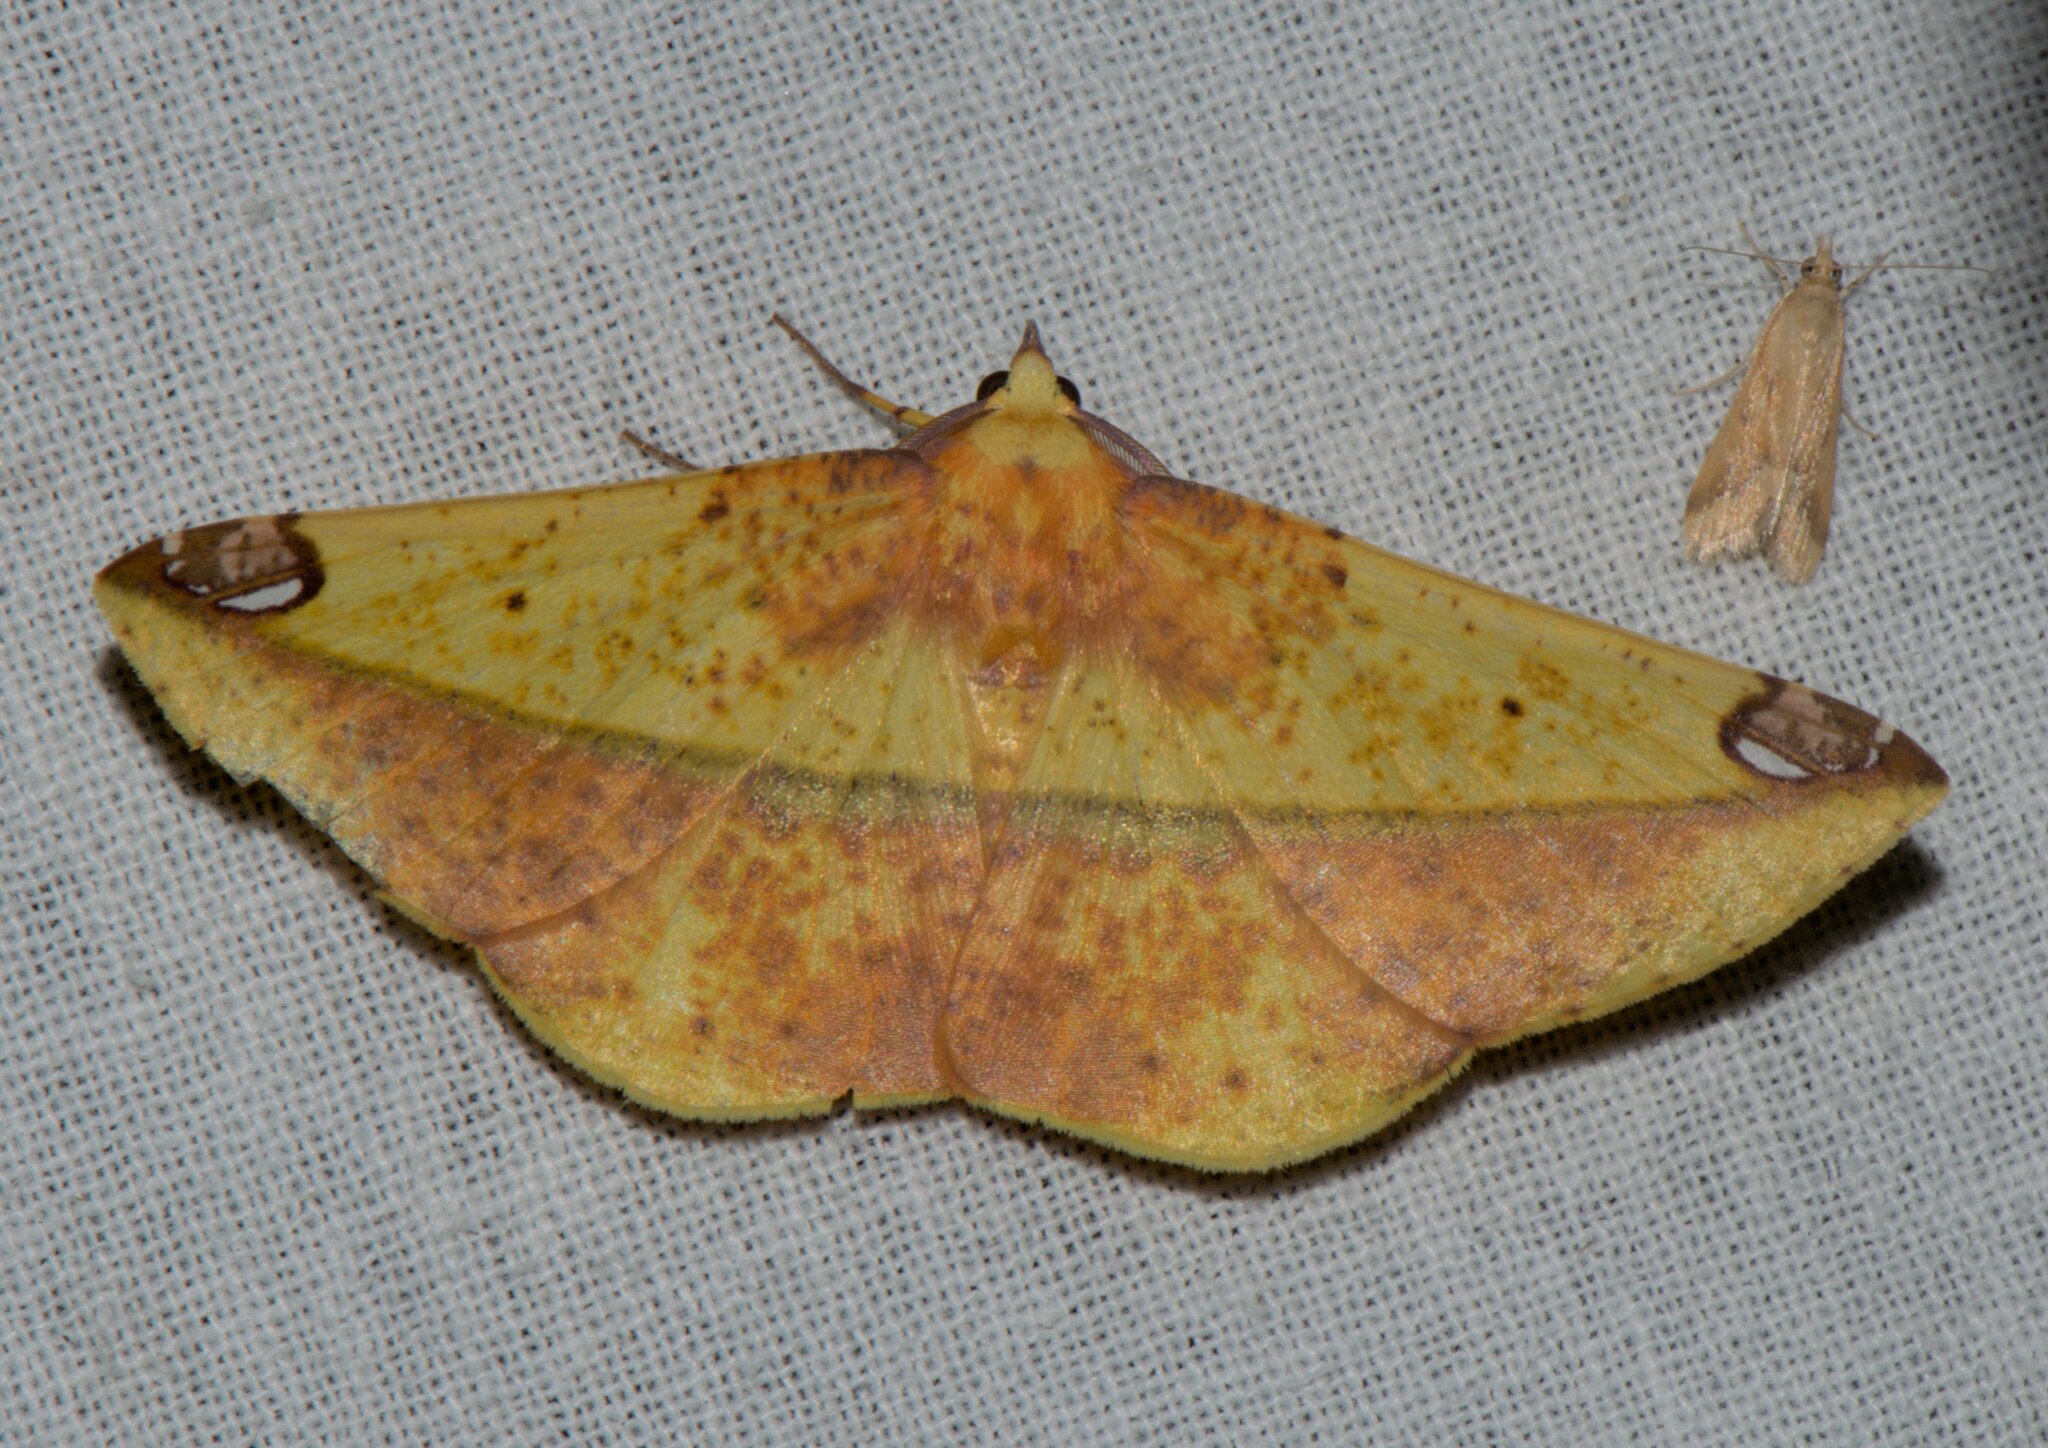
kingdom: Animalia
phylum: Arthropoda
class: Insecta
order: Lepidoptera
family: Geometridae
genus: Mimomiza
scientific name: Mimomiza cruentaria
